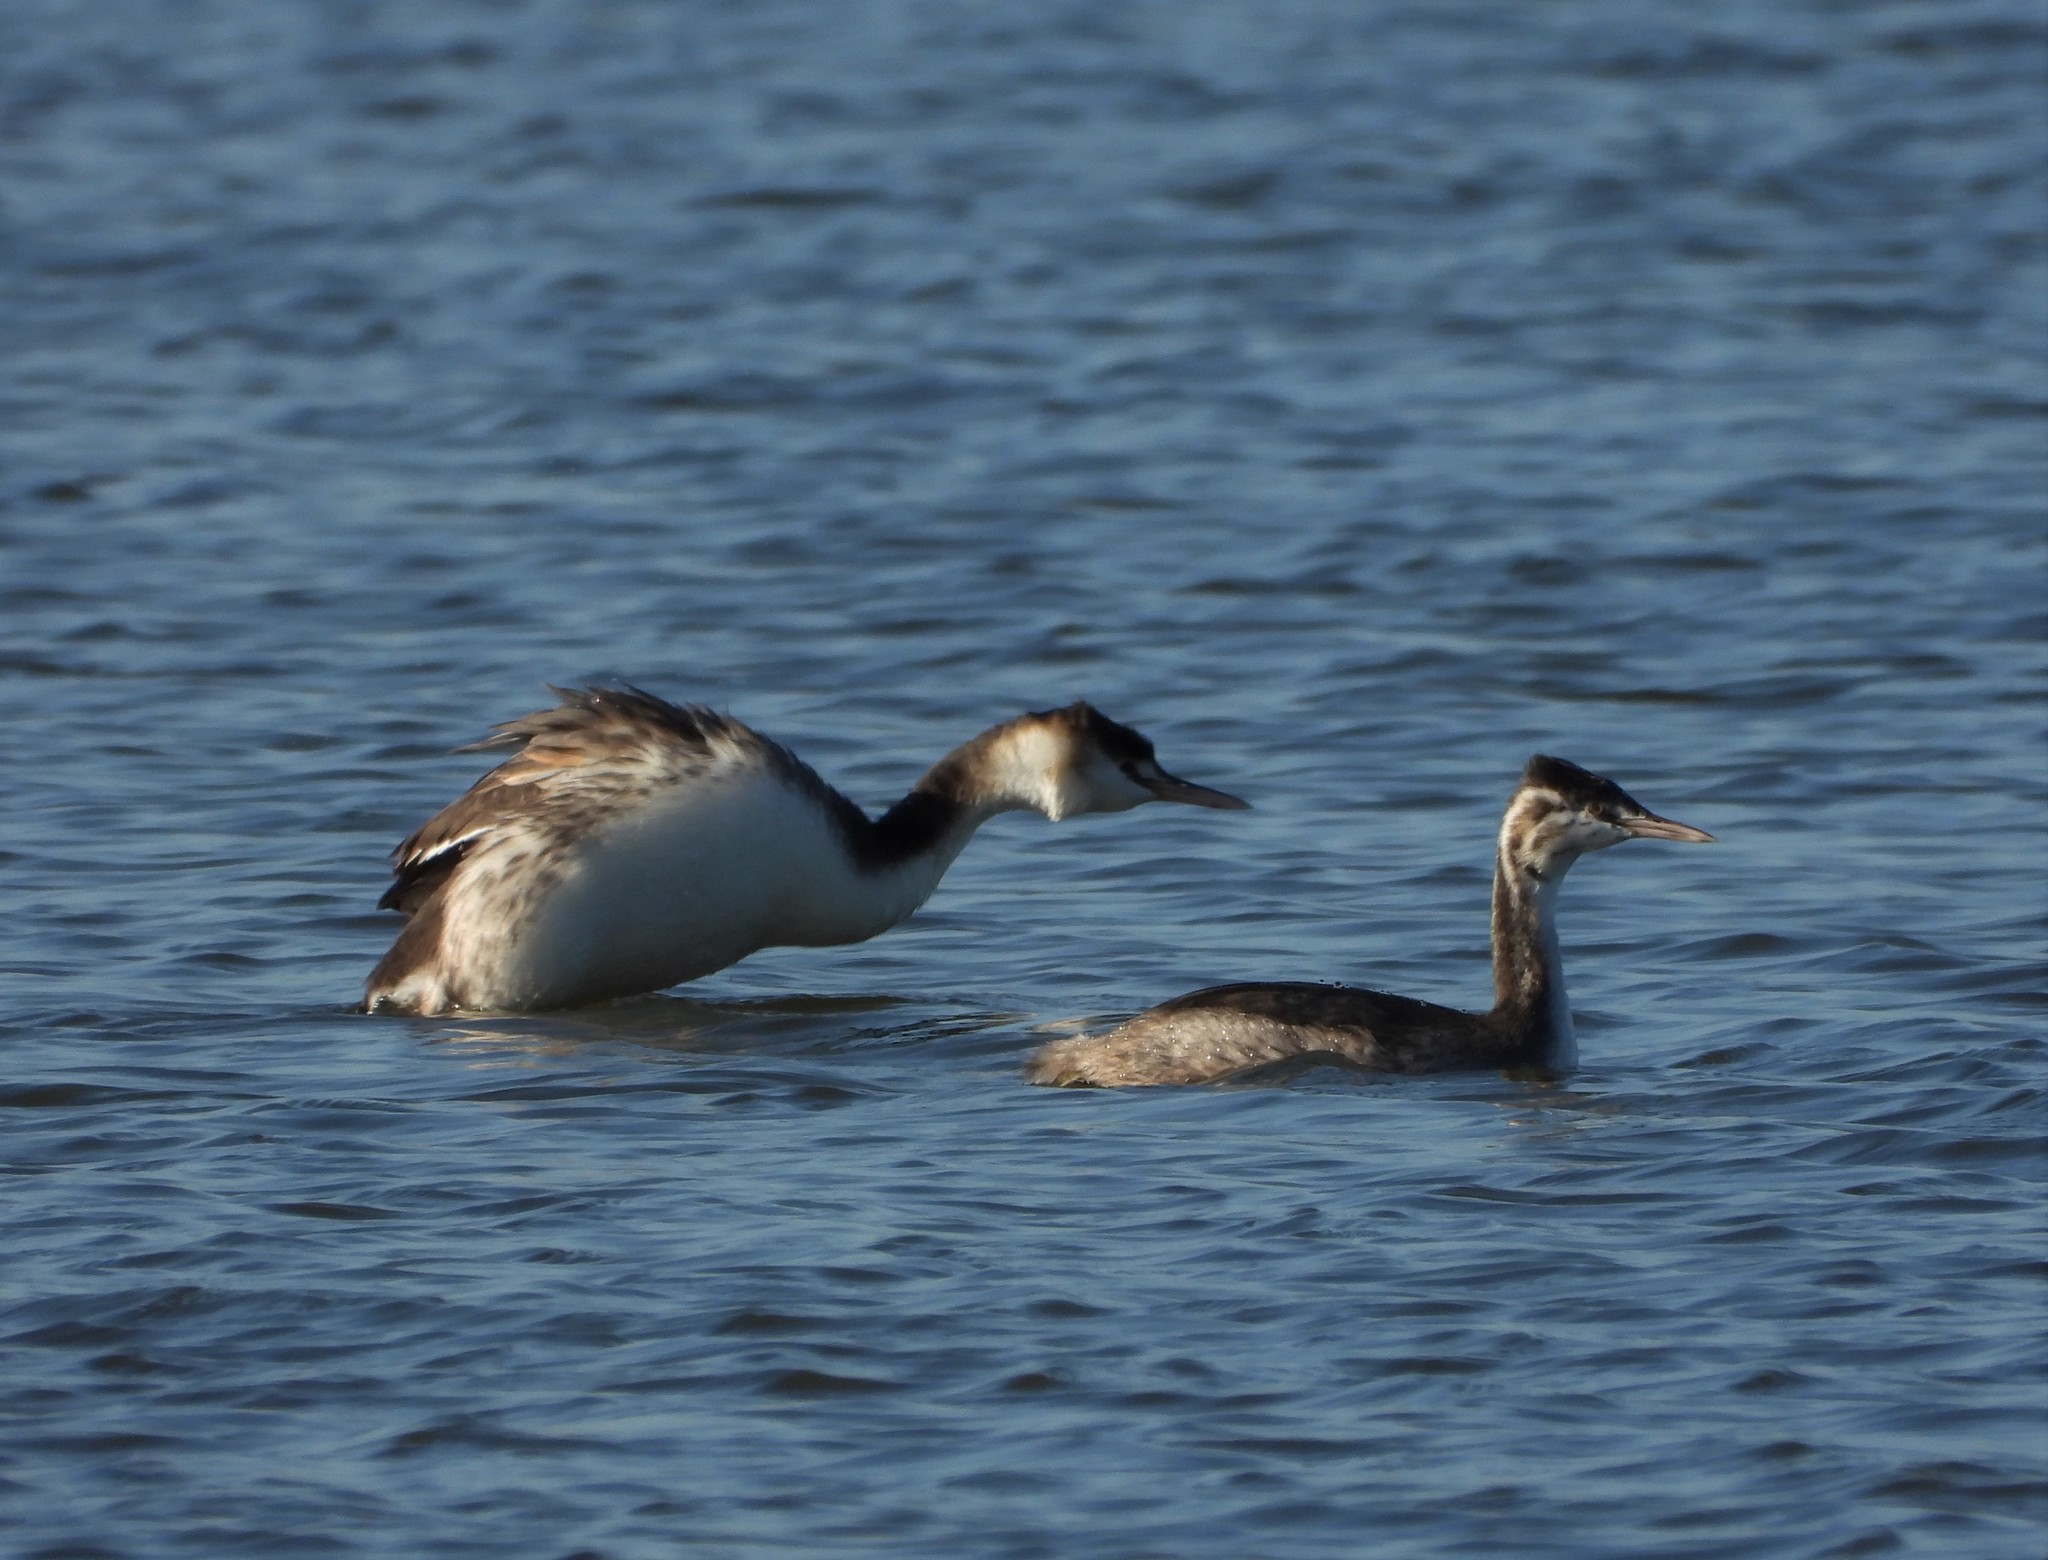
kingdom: Animalia
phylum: Chordata
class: Aves
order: Podicipediformes
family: Podicipedidae
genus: Podiceps
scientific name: Podiceps cristatus
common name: Great crested grebe
